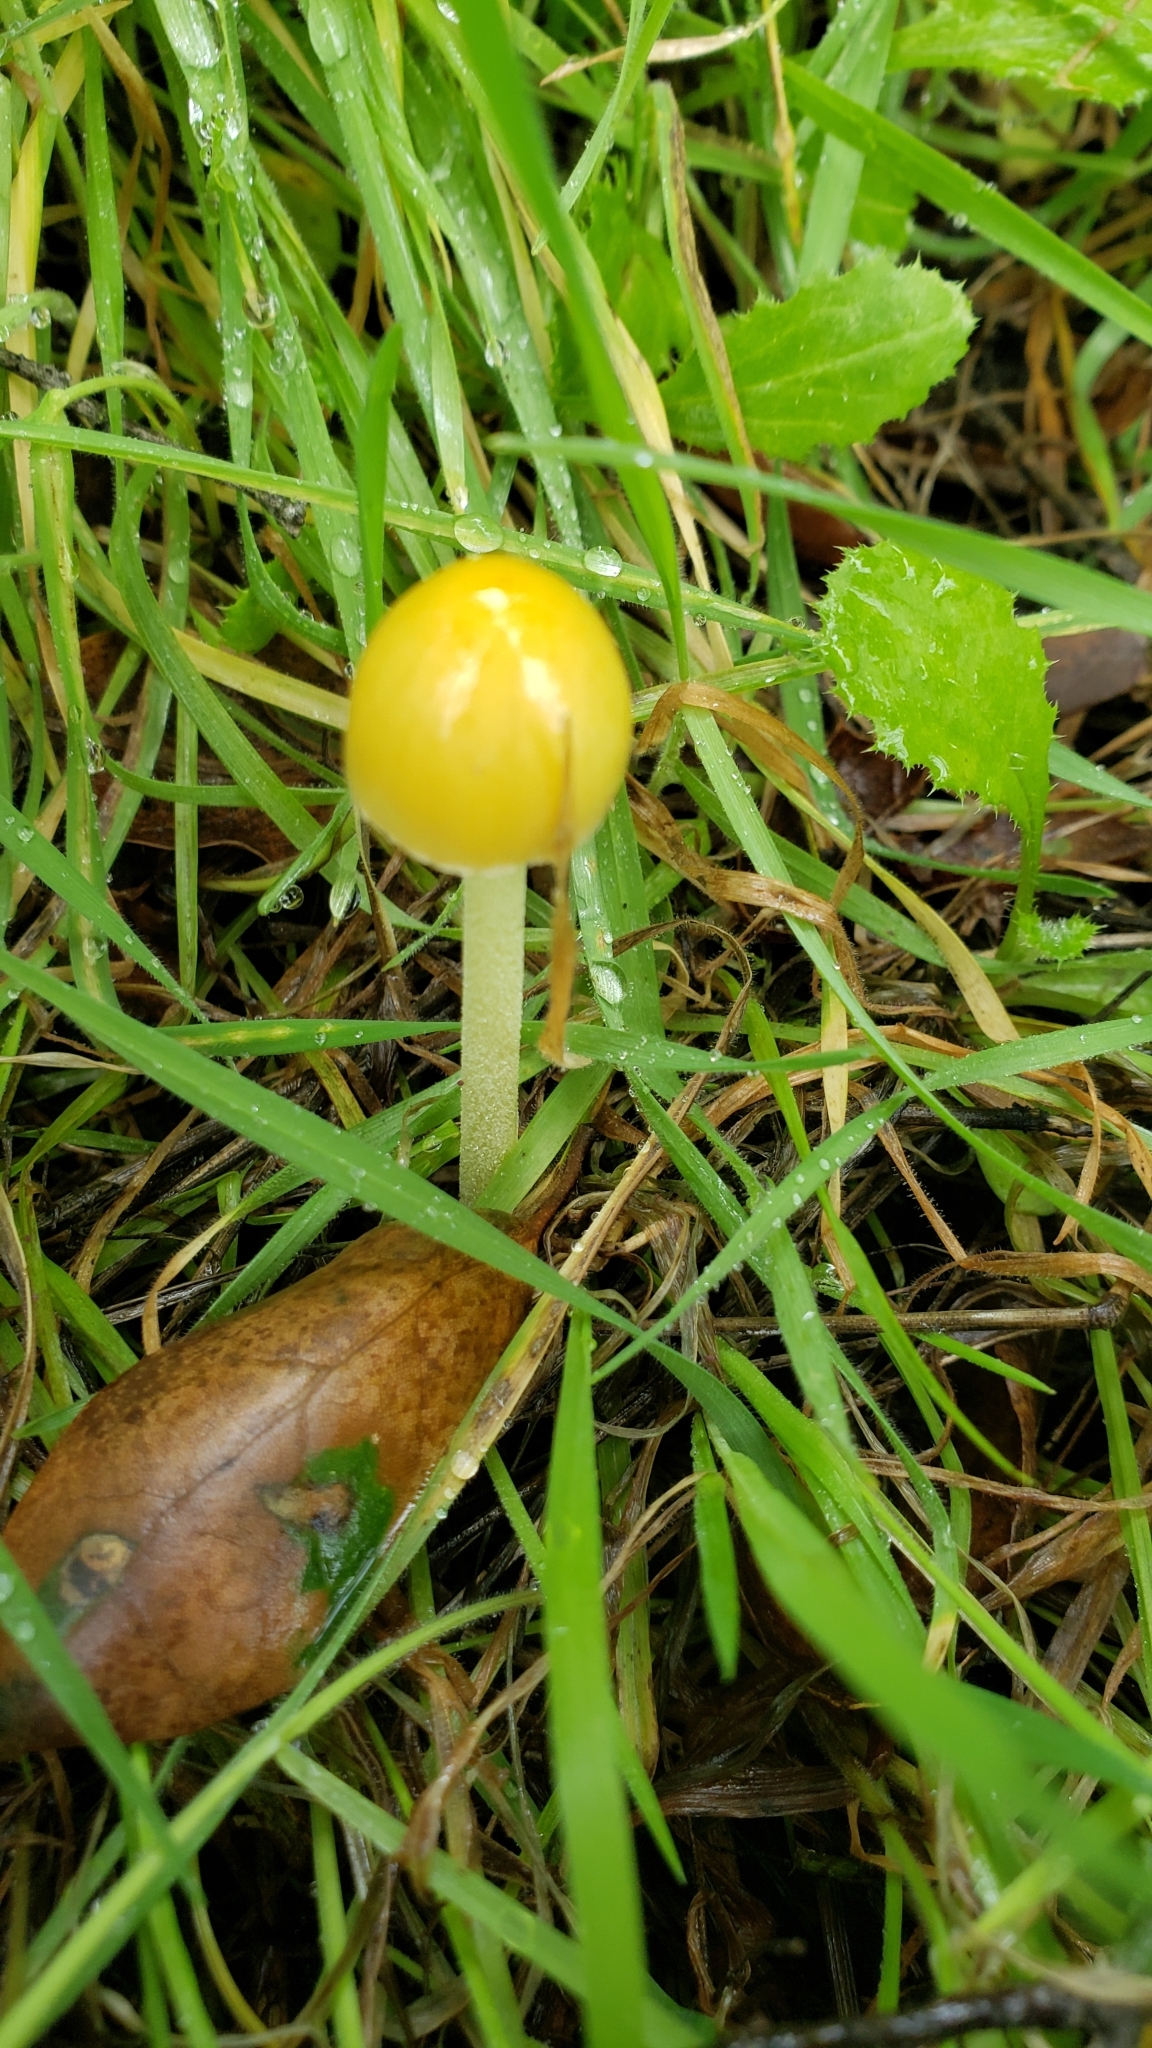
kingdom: Fungi
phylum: Basidiomycota
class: Agaricomycetes
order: Agaricales
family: Bolbitiaceae
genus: Bolbitius
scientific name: Bolbitius titubans
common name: Yellow fieldcap
